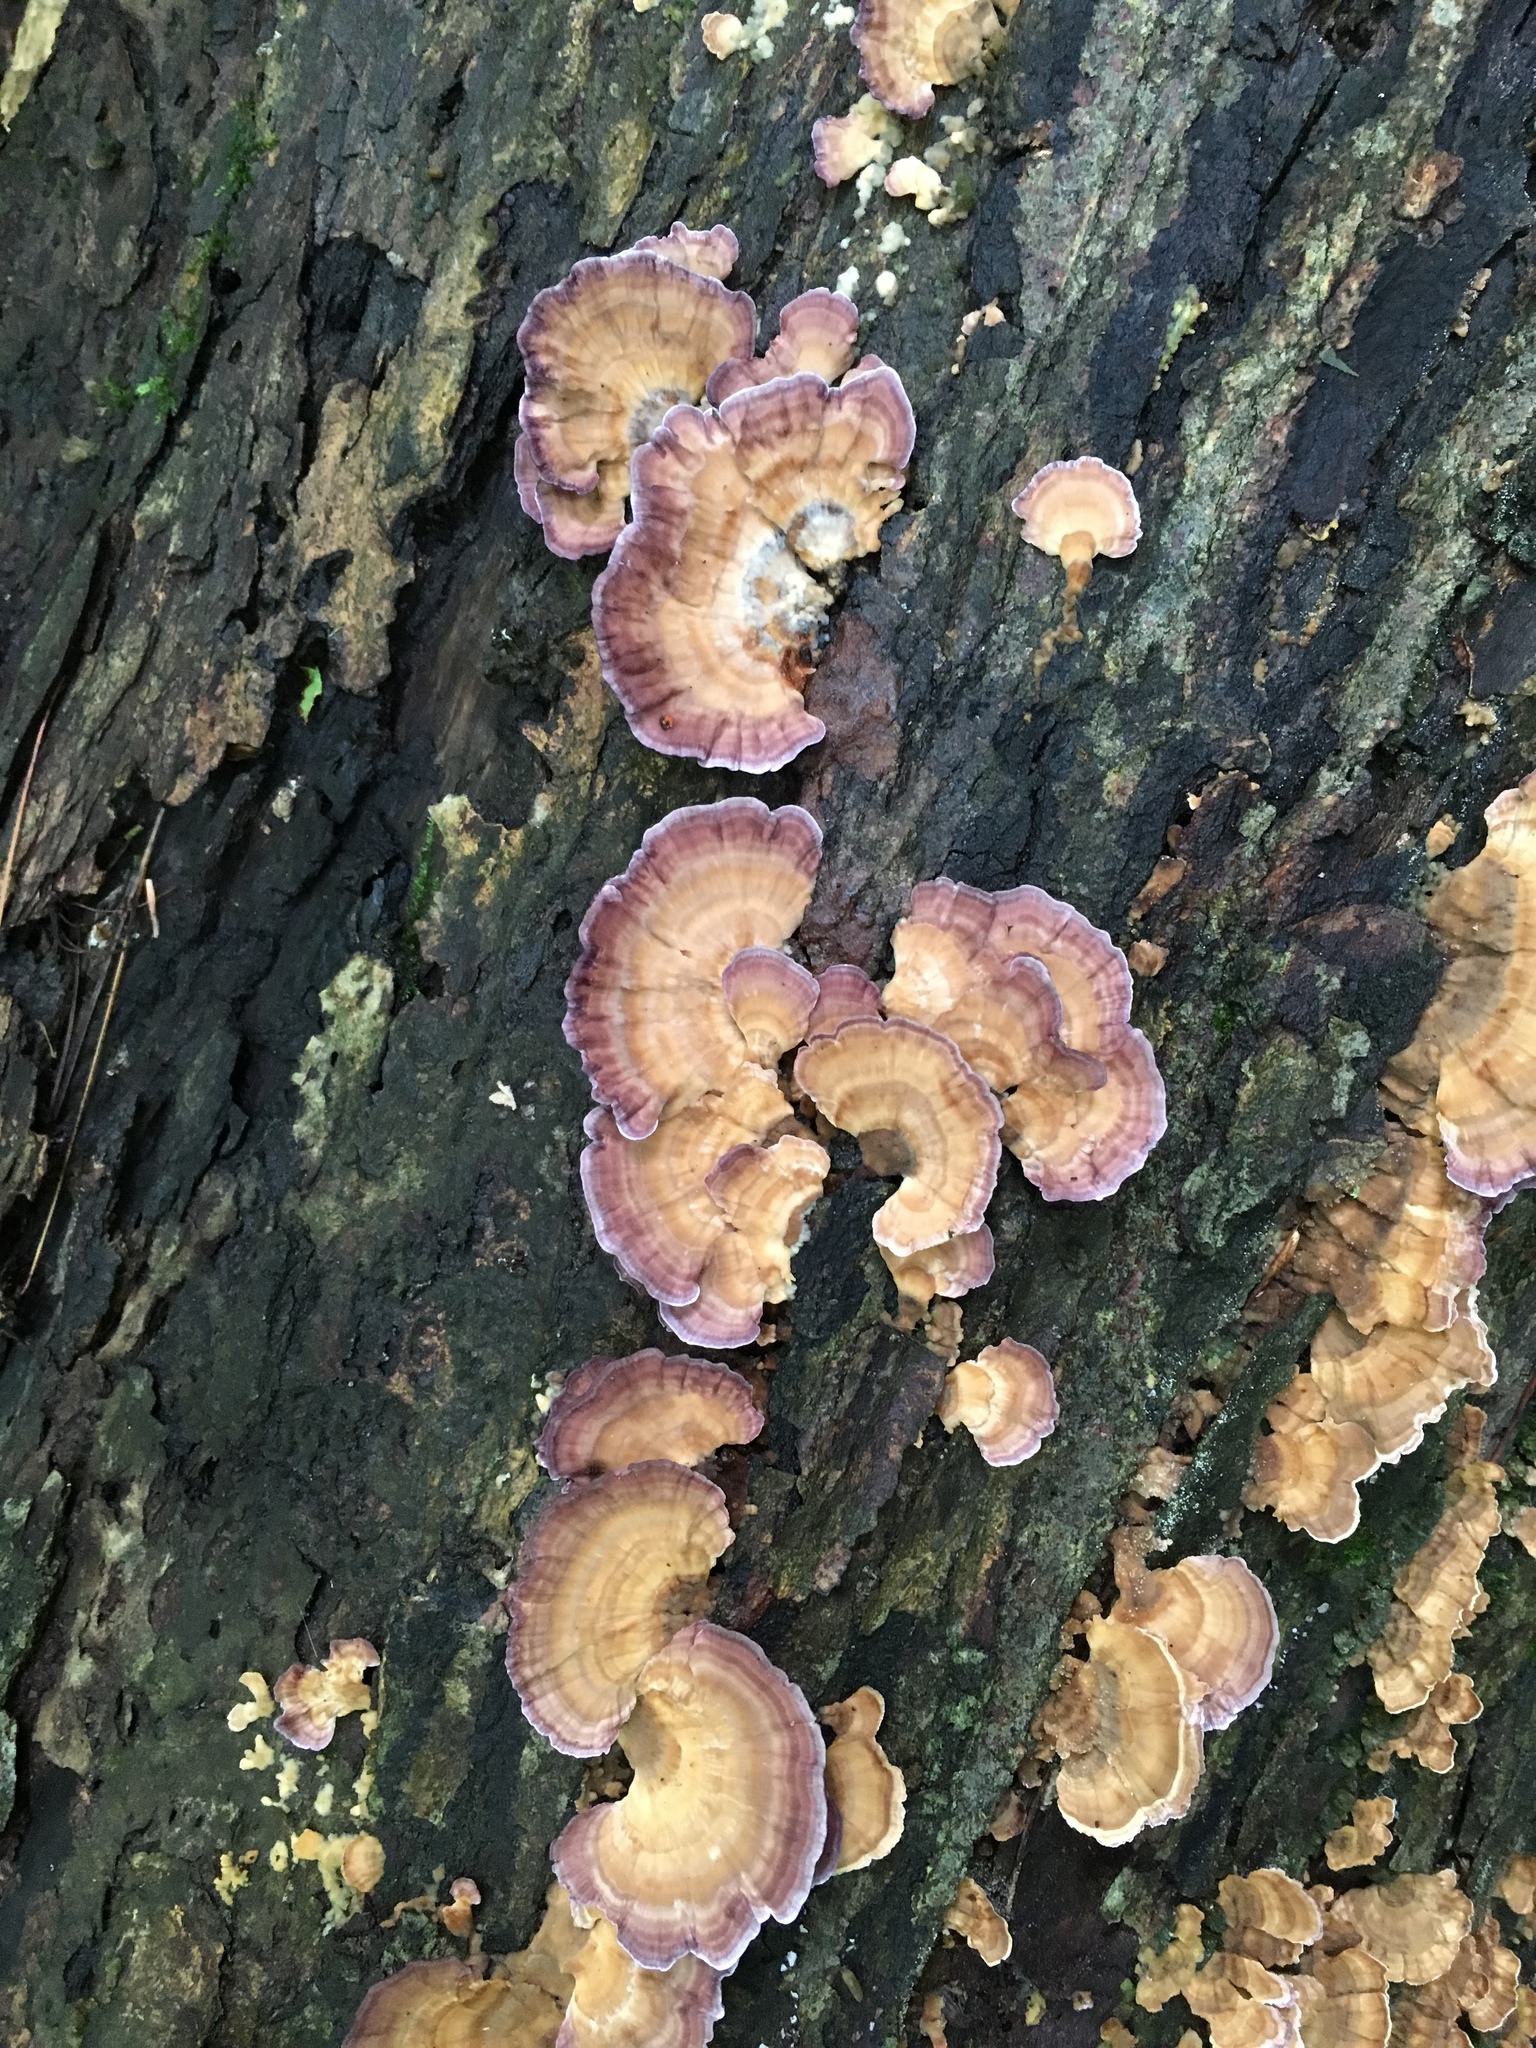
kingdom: Fungi
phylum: Basidiomycota
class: Agaricomycetes
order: Hymenochaetales
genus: Trichaptum
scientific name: Trichaptum biforme
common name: Violet-toothed polypore
